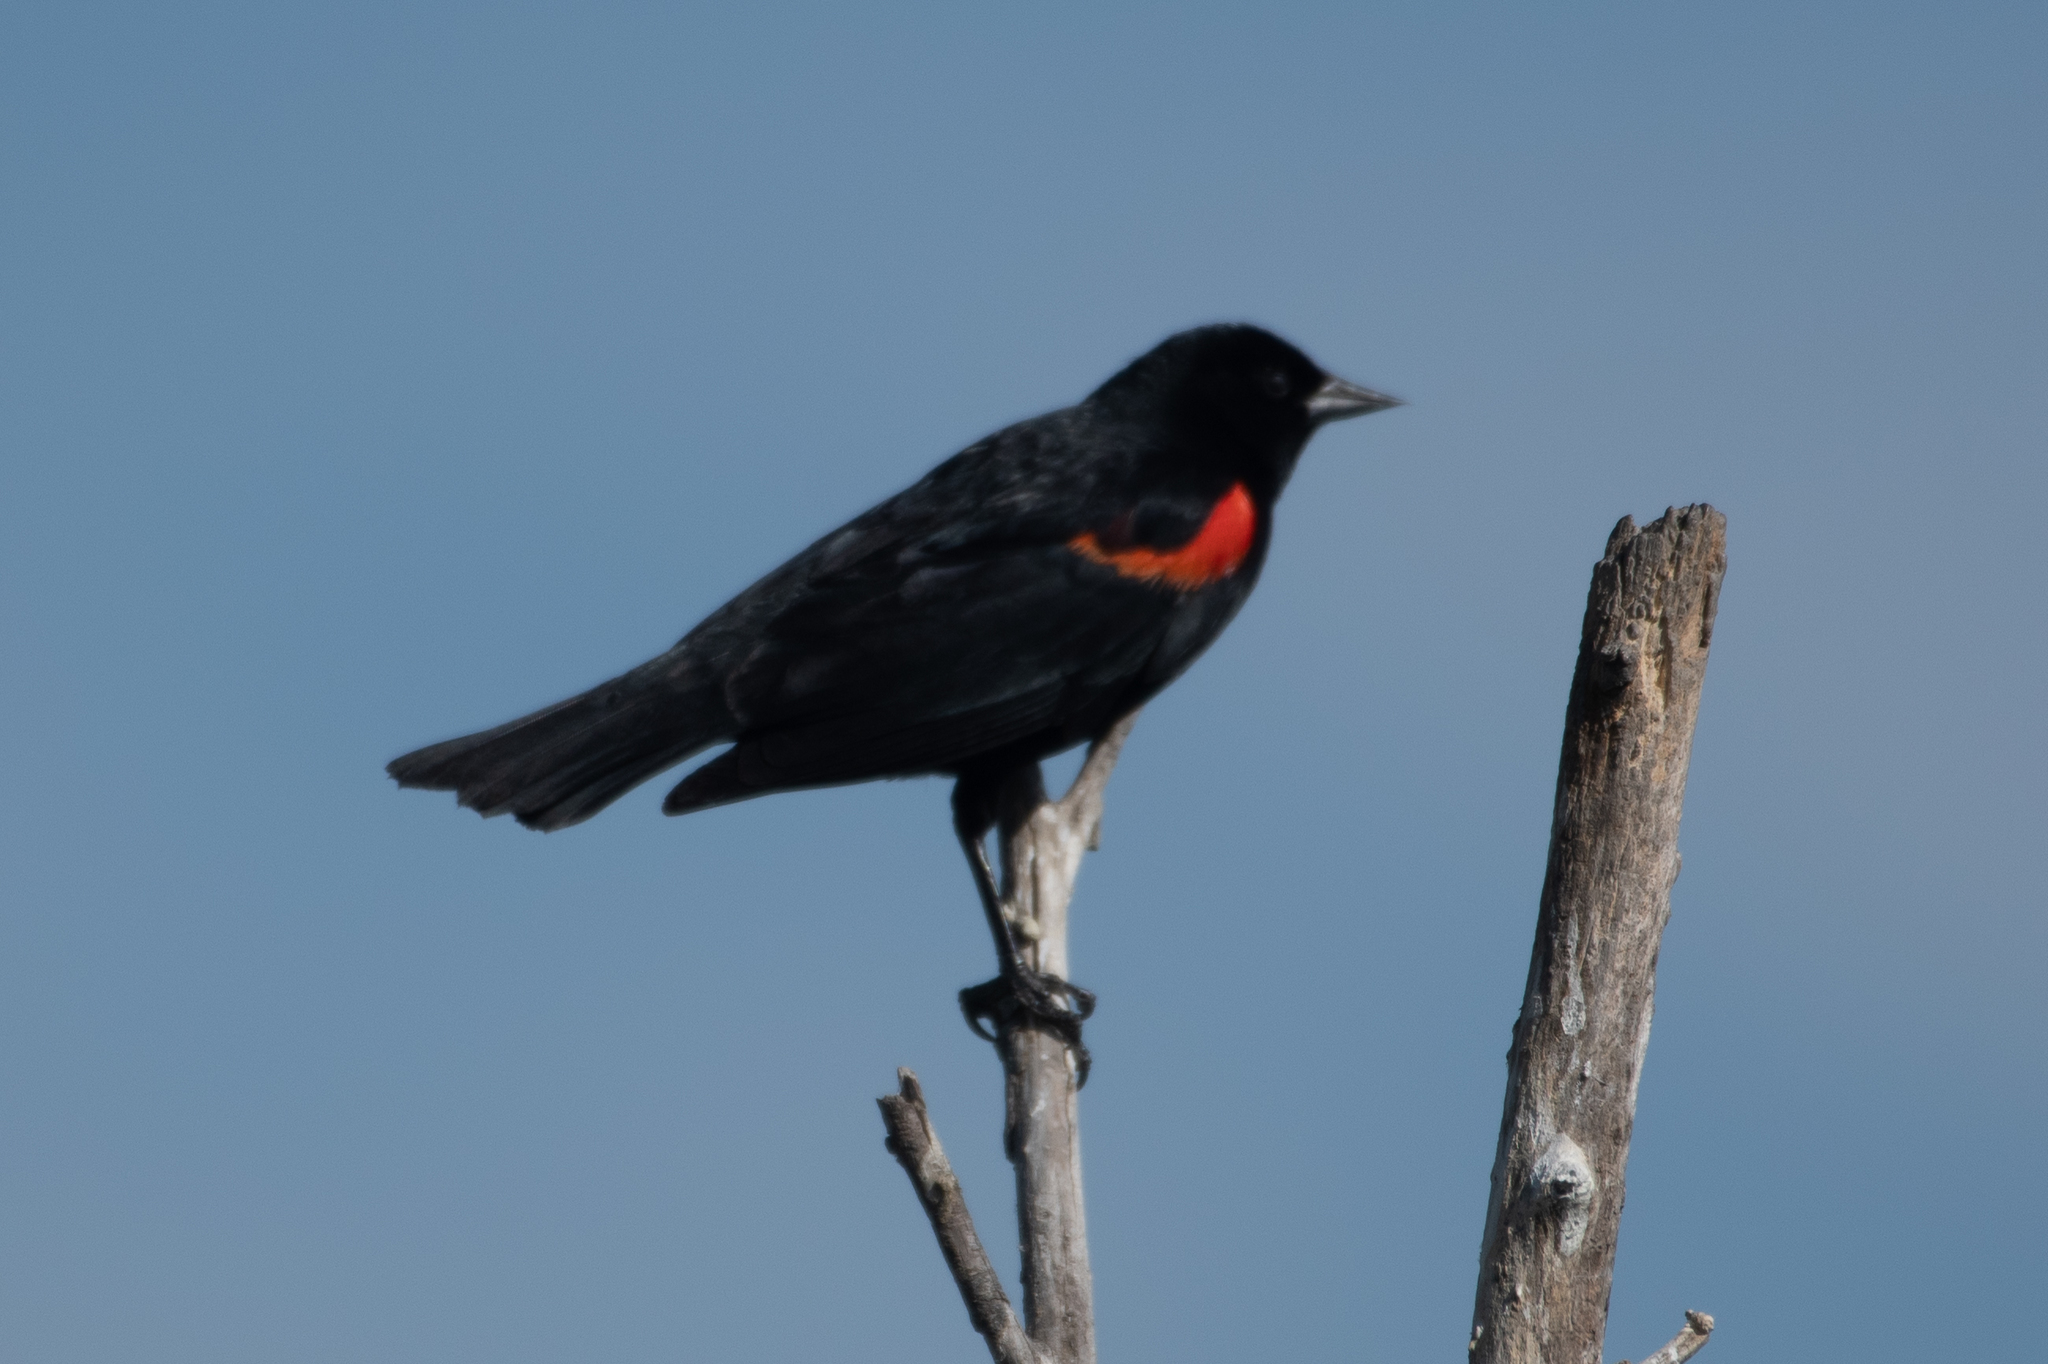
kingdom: Animalia
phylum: Chordata
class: Aves
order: Passeriformes
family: Icteridae
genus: Agelaius
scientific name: Agelaius phoeniceus
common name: Red-winged blackbird
